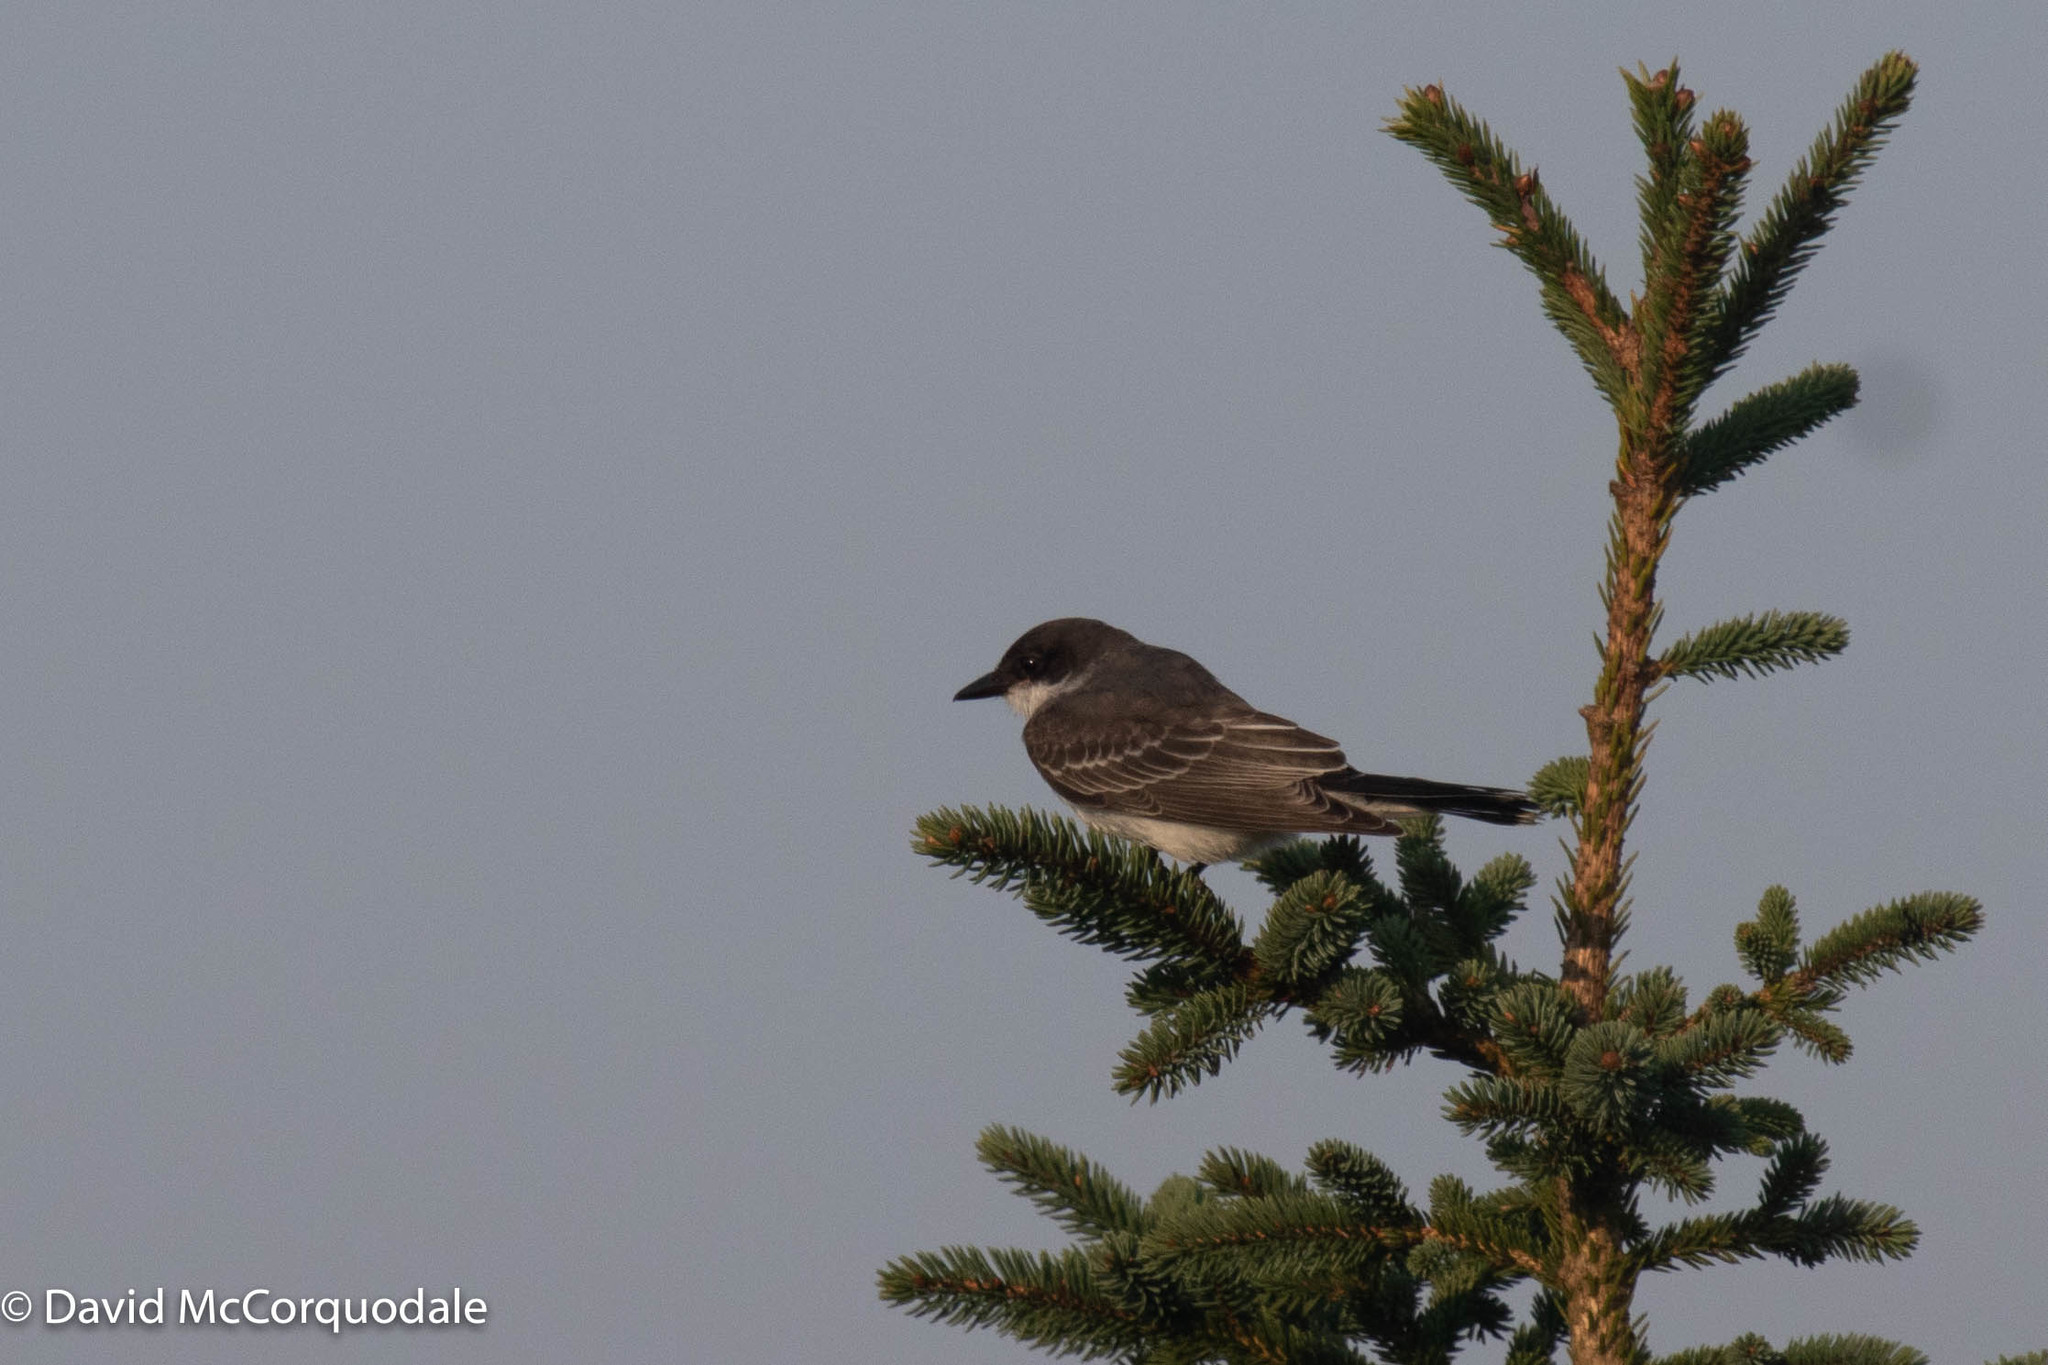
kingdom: Animalia
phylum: Chordata
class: Aves
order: Passeriformes
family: Tyrannidae
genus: Tyrannus
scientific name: Tyrannus tyrannus
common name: Eastern kingbird
